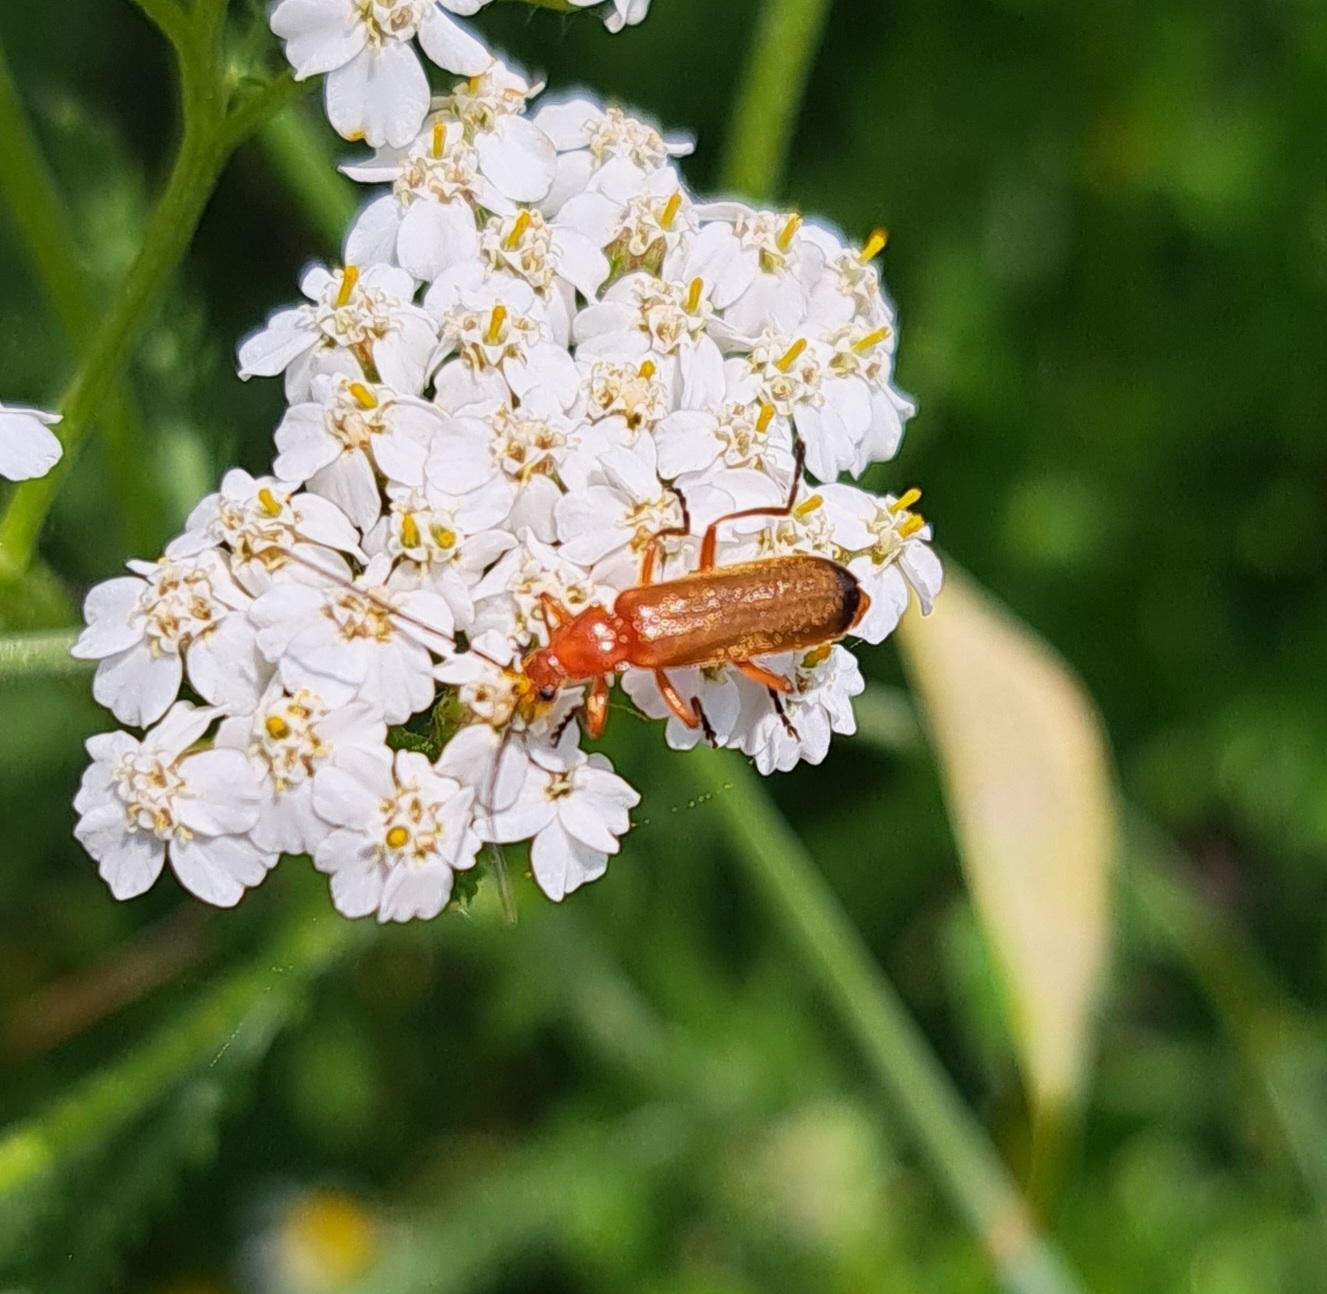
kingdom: Animalia
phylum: Arthropoda
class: Insecta
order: Coleoptera
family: Cantharidae
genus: Rhagonycha
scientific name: Rhagonycha fulva
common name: Common red soldier beetle
